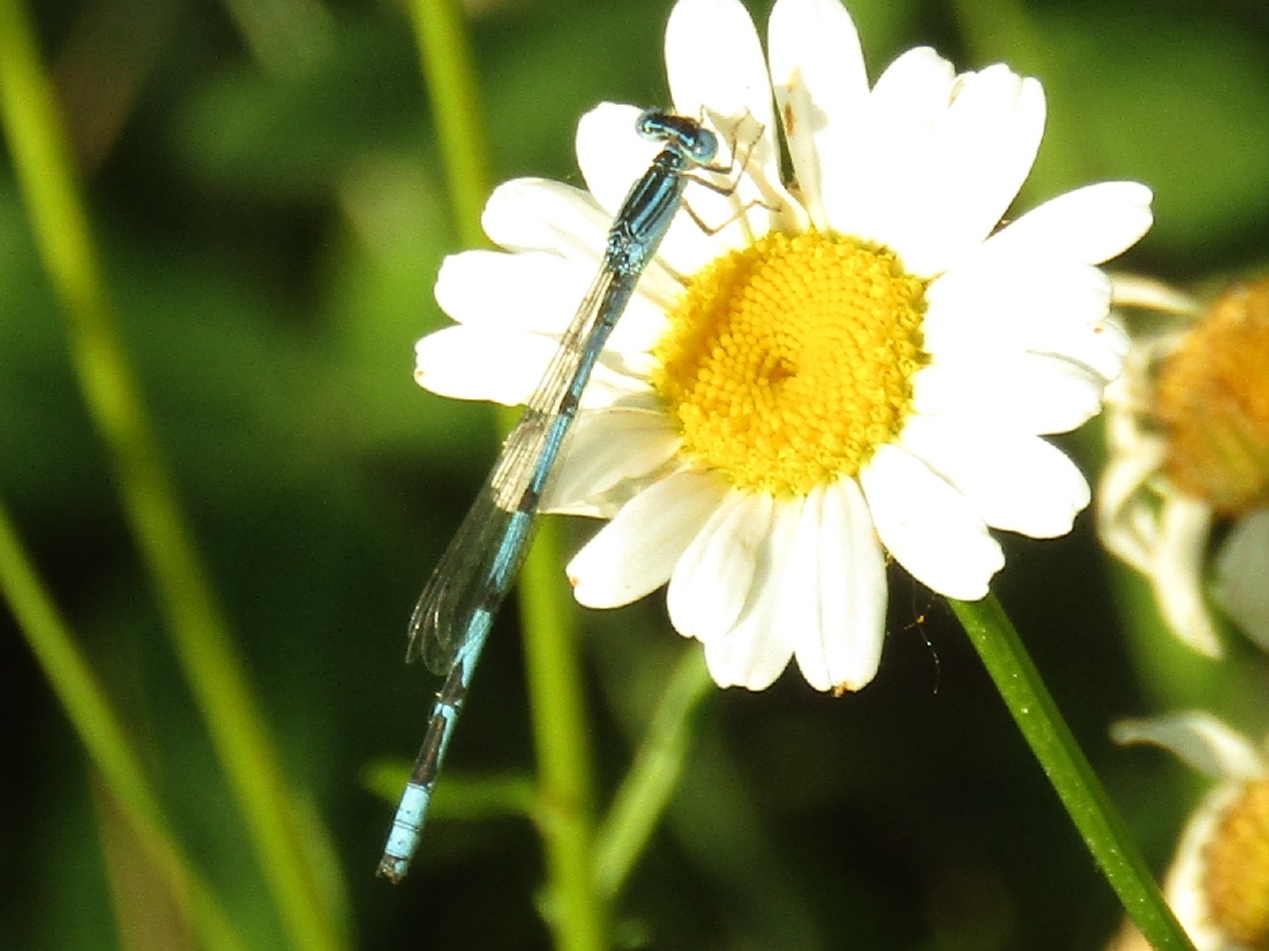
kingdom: Animalia
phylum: Arthropoda
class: Insecta
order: Odonata
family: Coenagrionidae
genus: Enallagma
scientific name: Enallagma basidens
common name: Double-striped bluet
